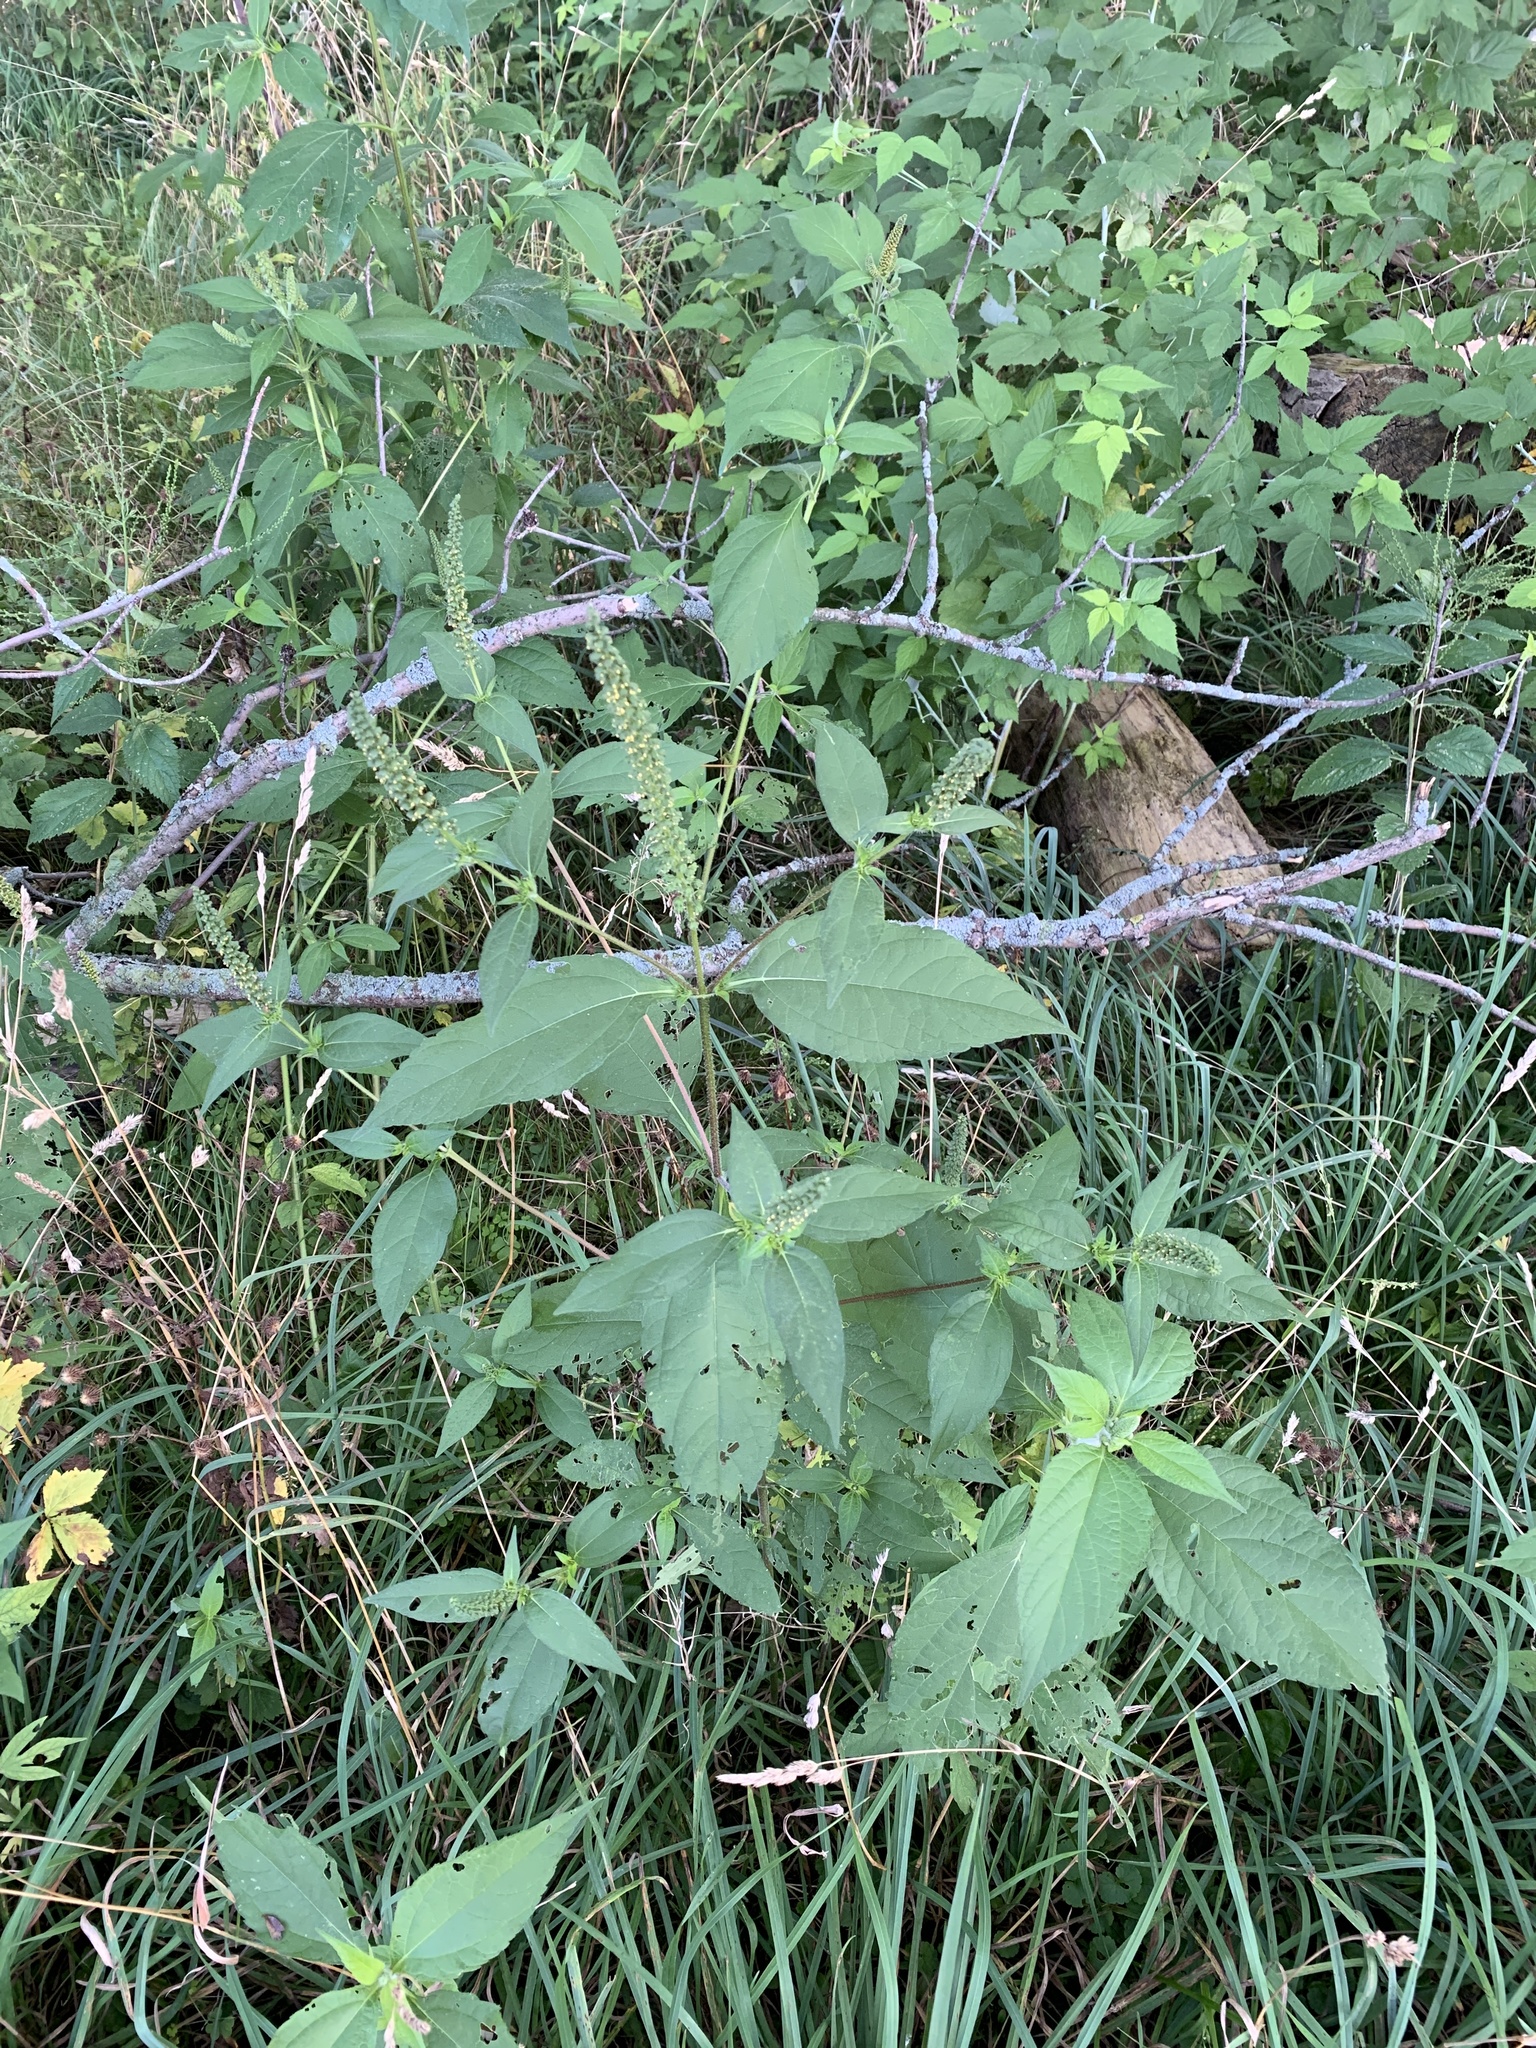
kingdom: Plantae
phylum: Tracheophyta
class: Magnoliopsida
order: Asterales
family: Asteraceae
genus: Ambrosia
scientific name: Ambrosia trifida
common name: Giant ragweed
